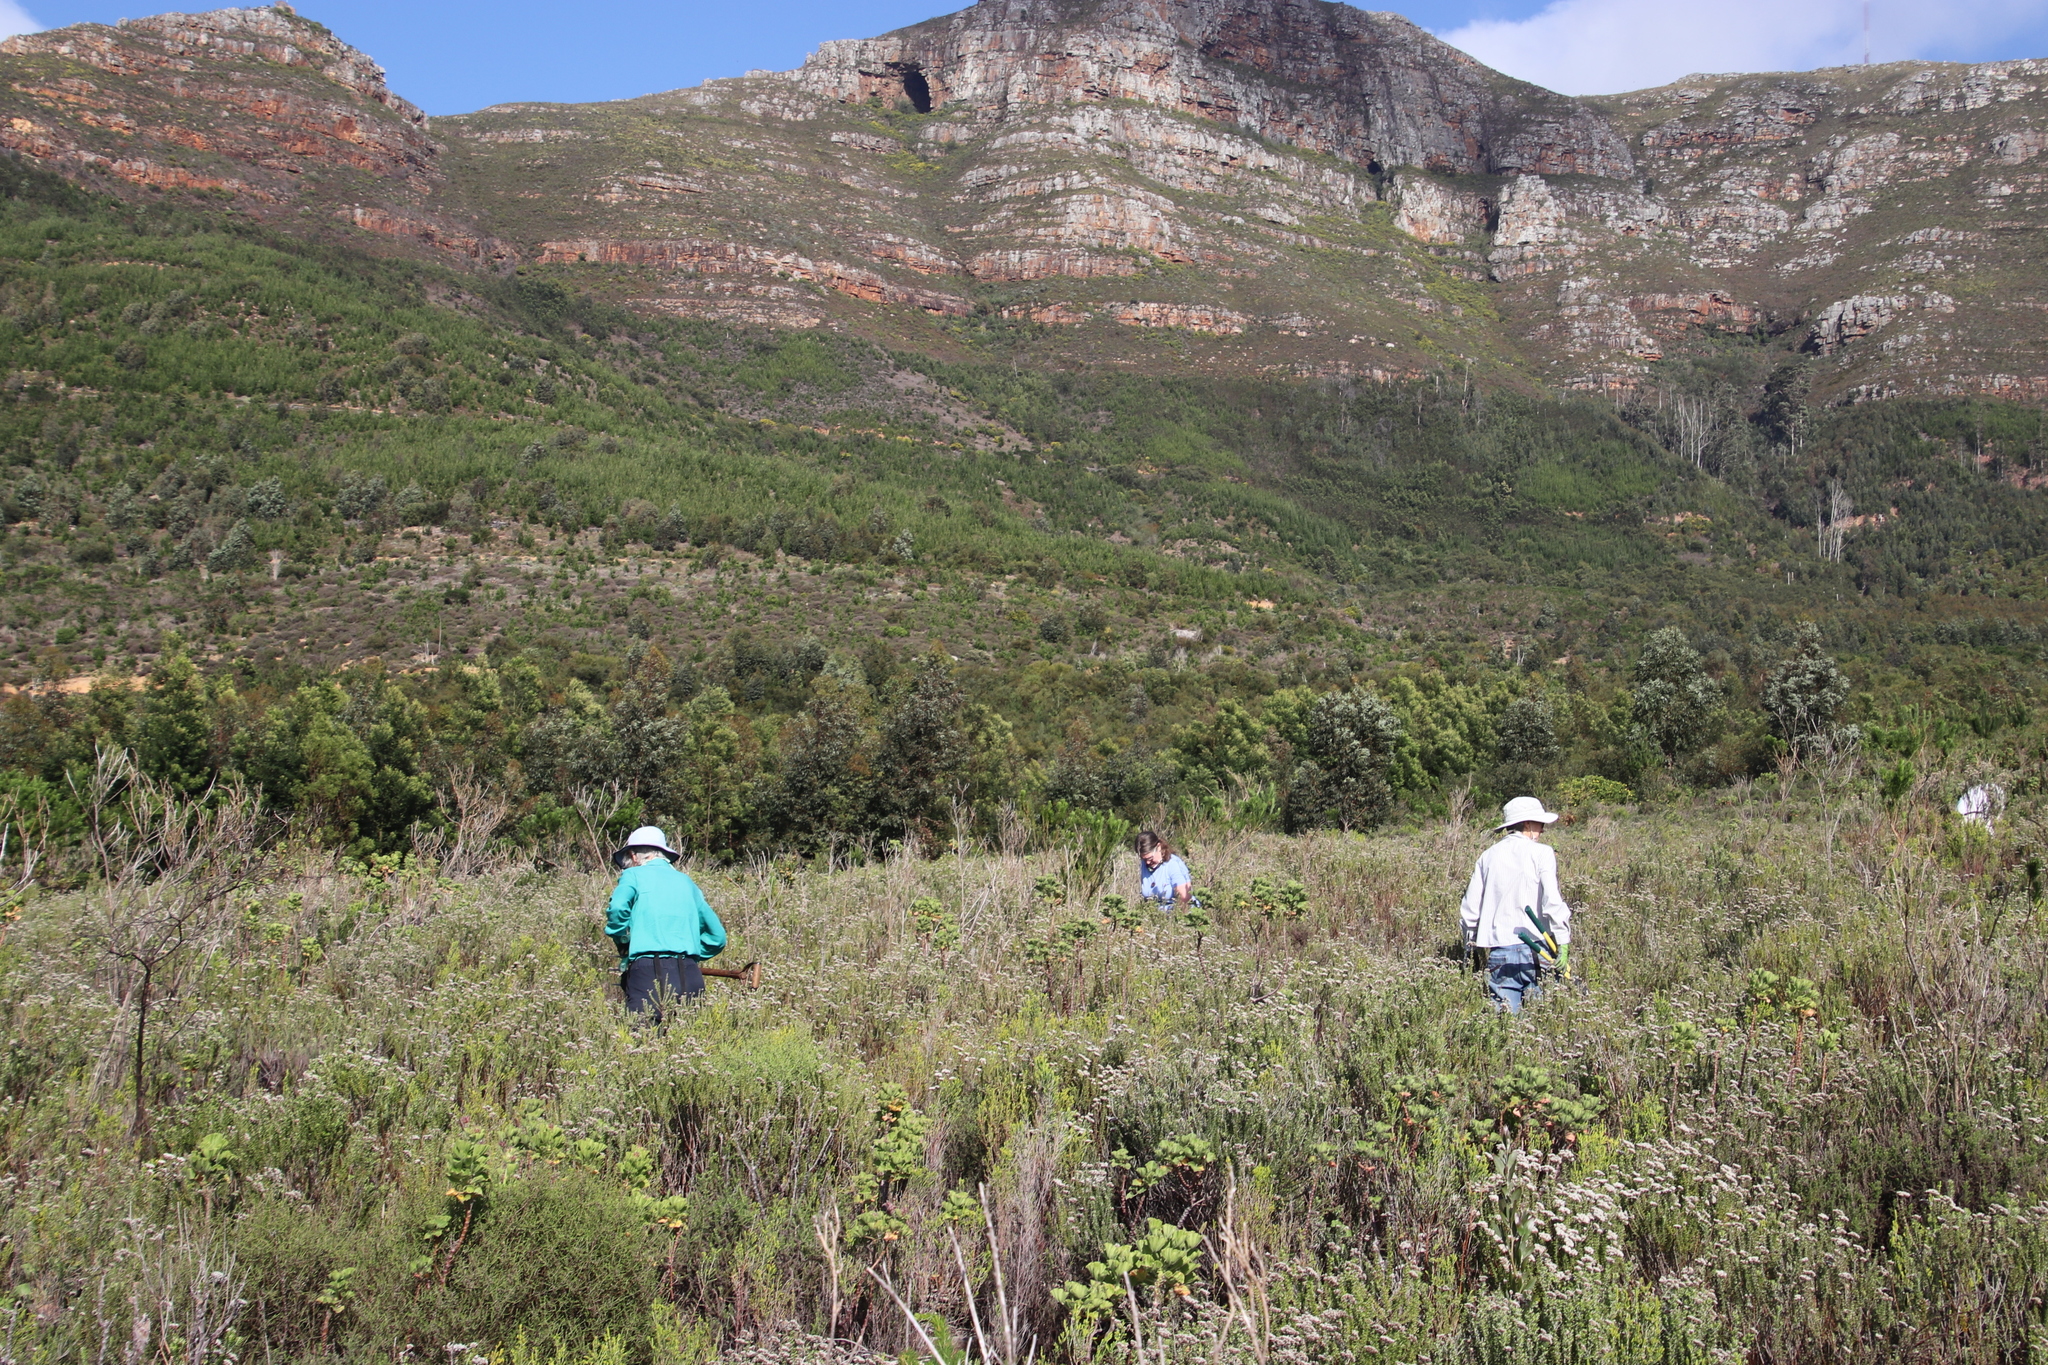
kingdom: Plantae
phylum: Tracheophyta
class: Magnoliopsida
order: Fabales
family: Fabaceae
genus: Acacia
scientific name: Acacia longifolia
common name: Sydney golden wattle
